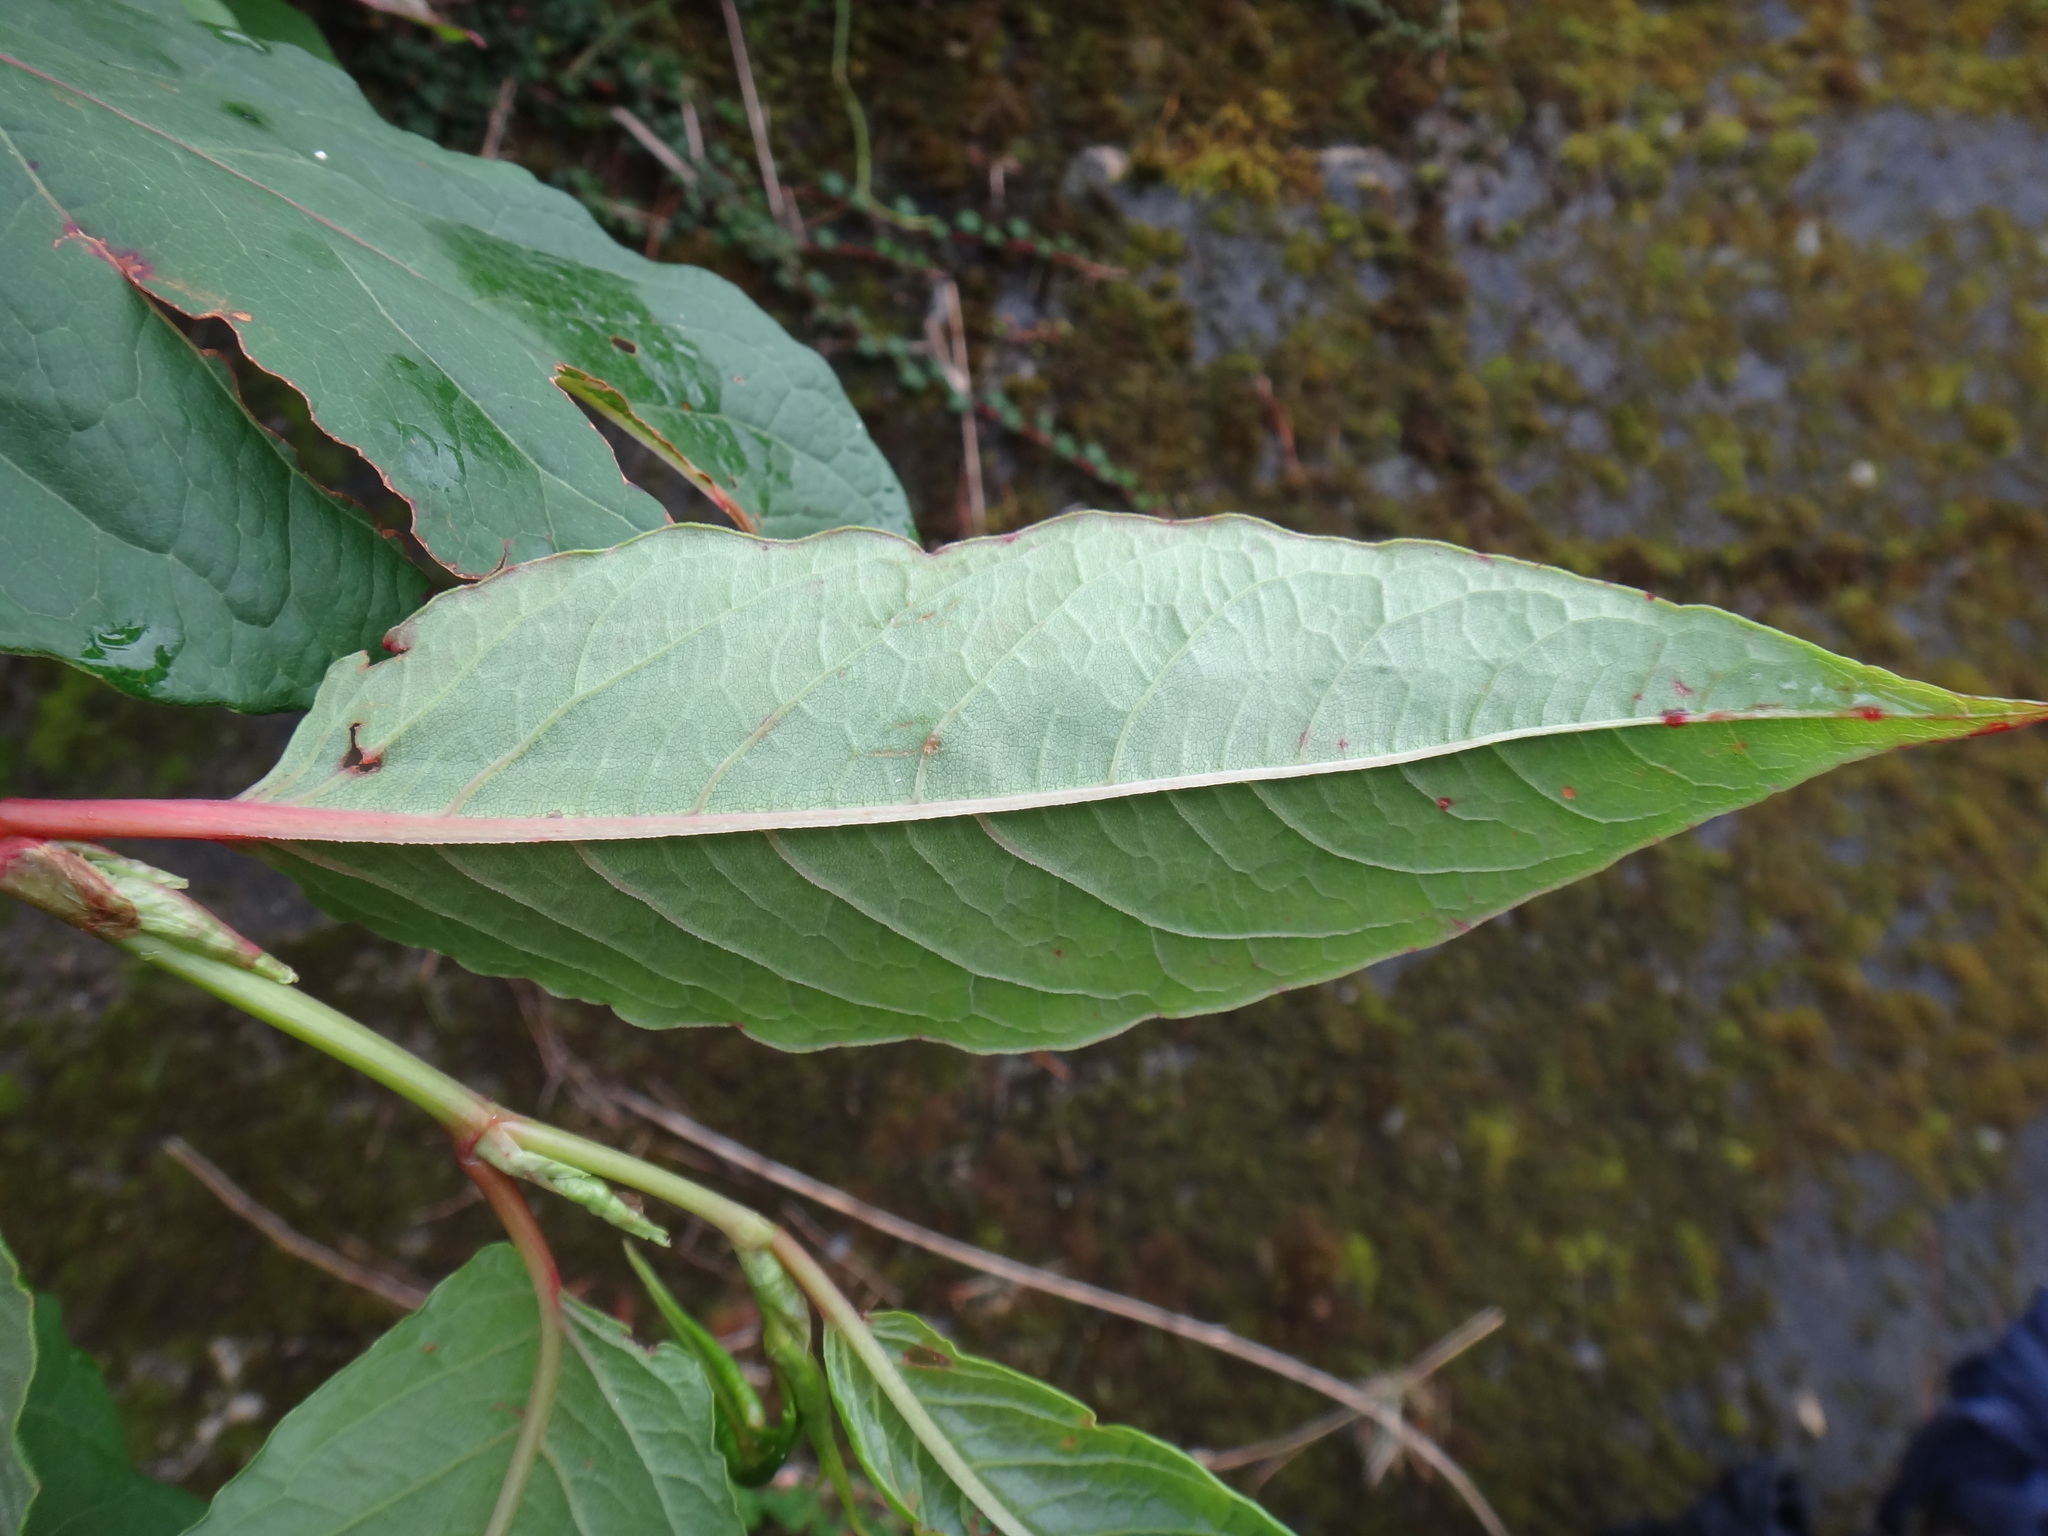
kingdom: Plantae
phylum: Tracheophyta
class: Magnoliopsida
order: Caryophyllales
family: Polygonaceae
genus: Reynoutria
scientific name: Reynoutria japonica
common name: Japanese knotweed
